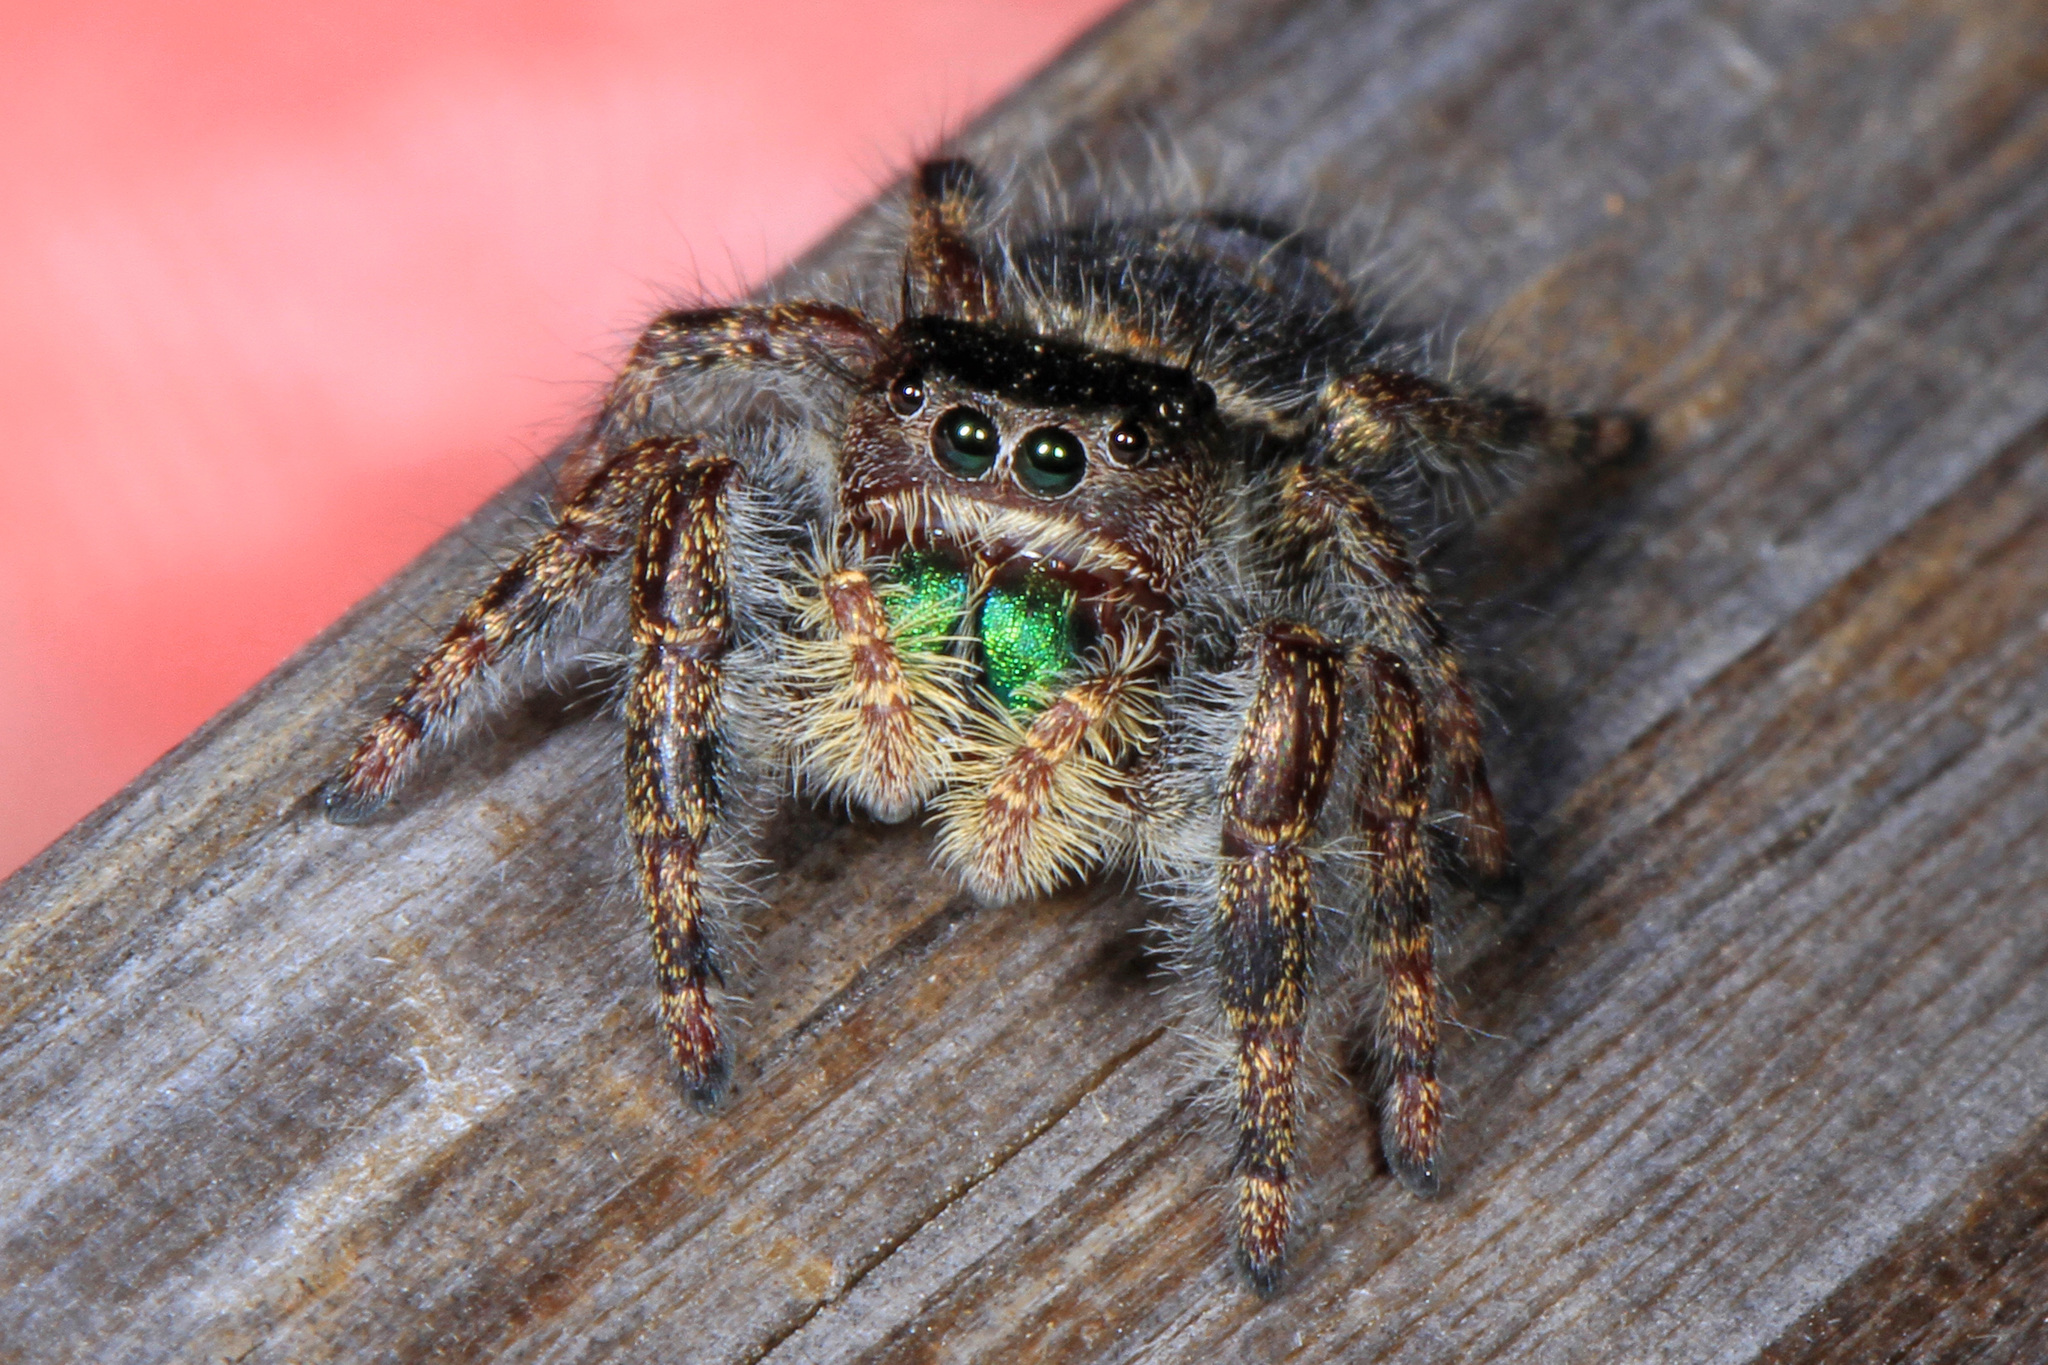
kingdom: Animalia
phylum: Arthropoda
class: Arachnida
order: Araneae
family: Salticidae
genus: Phidippus
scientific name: Phidippus audax
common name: Bold jumper
